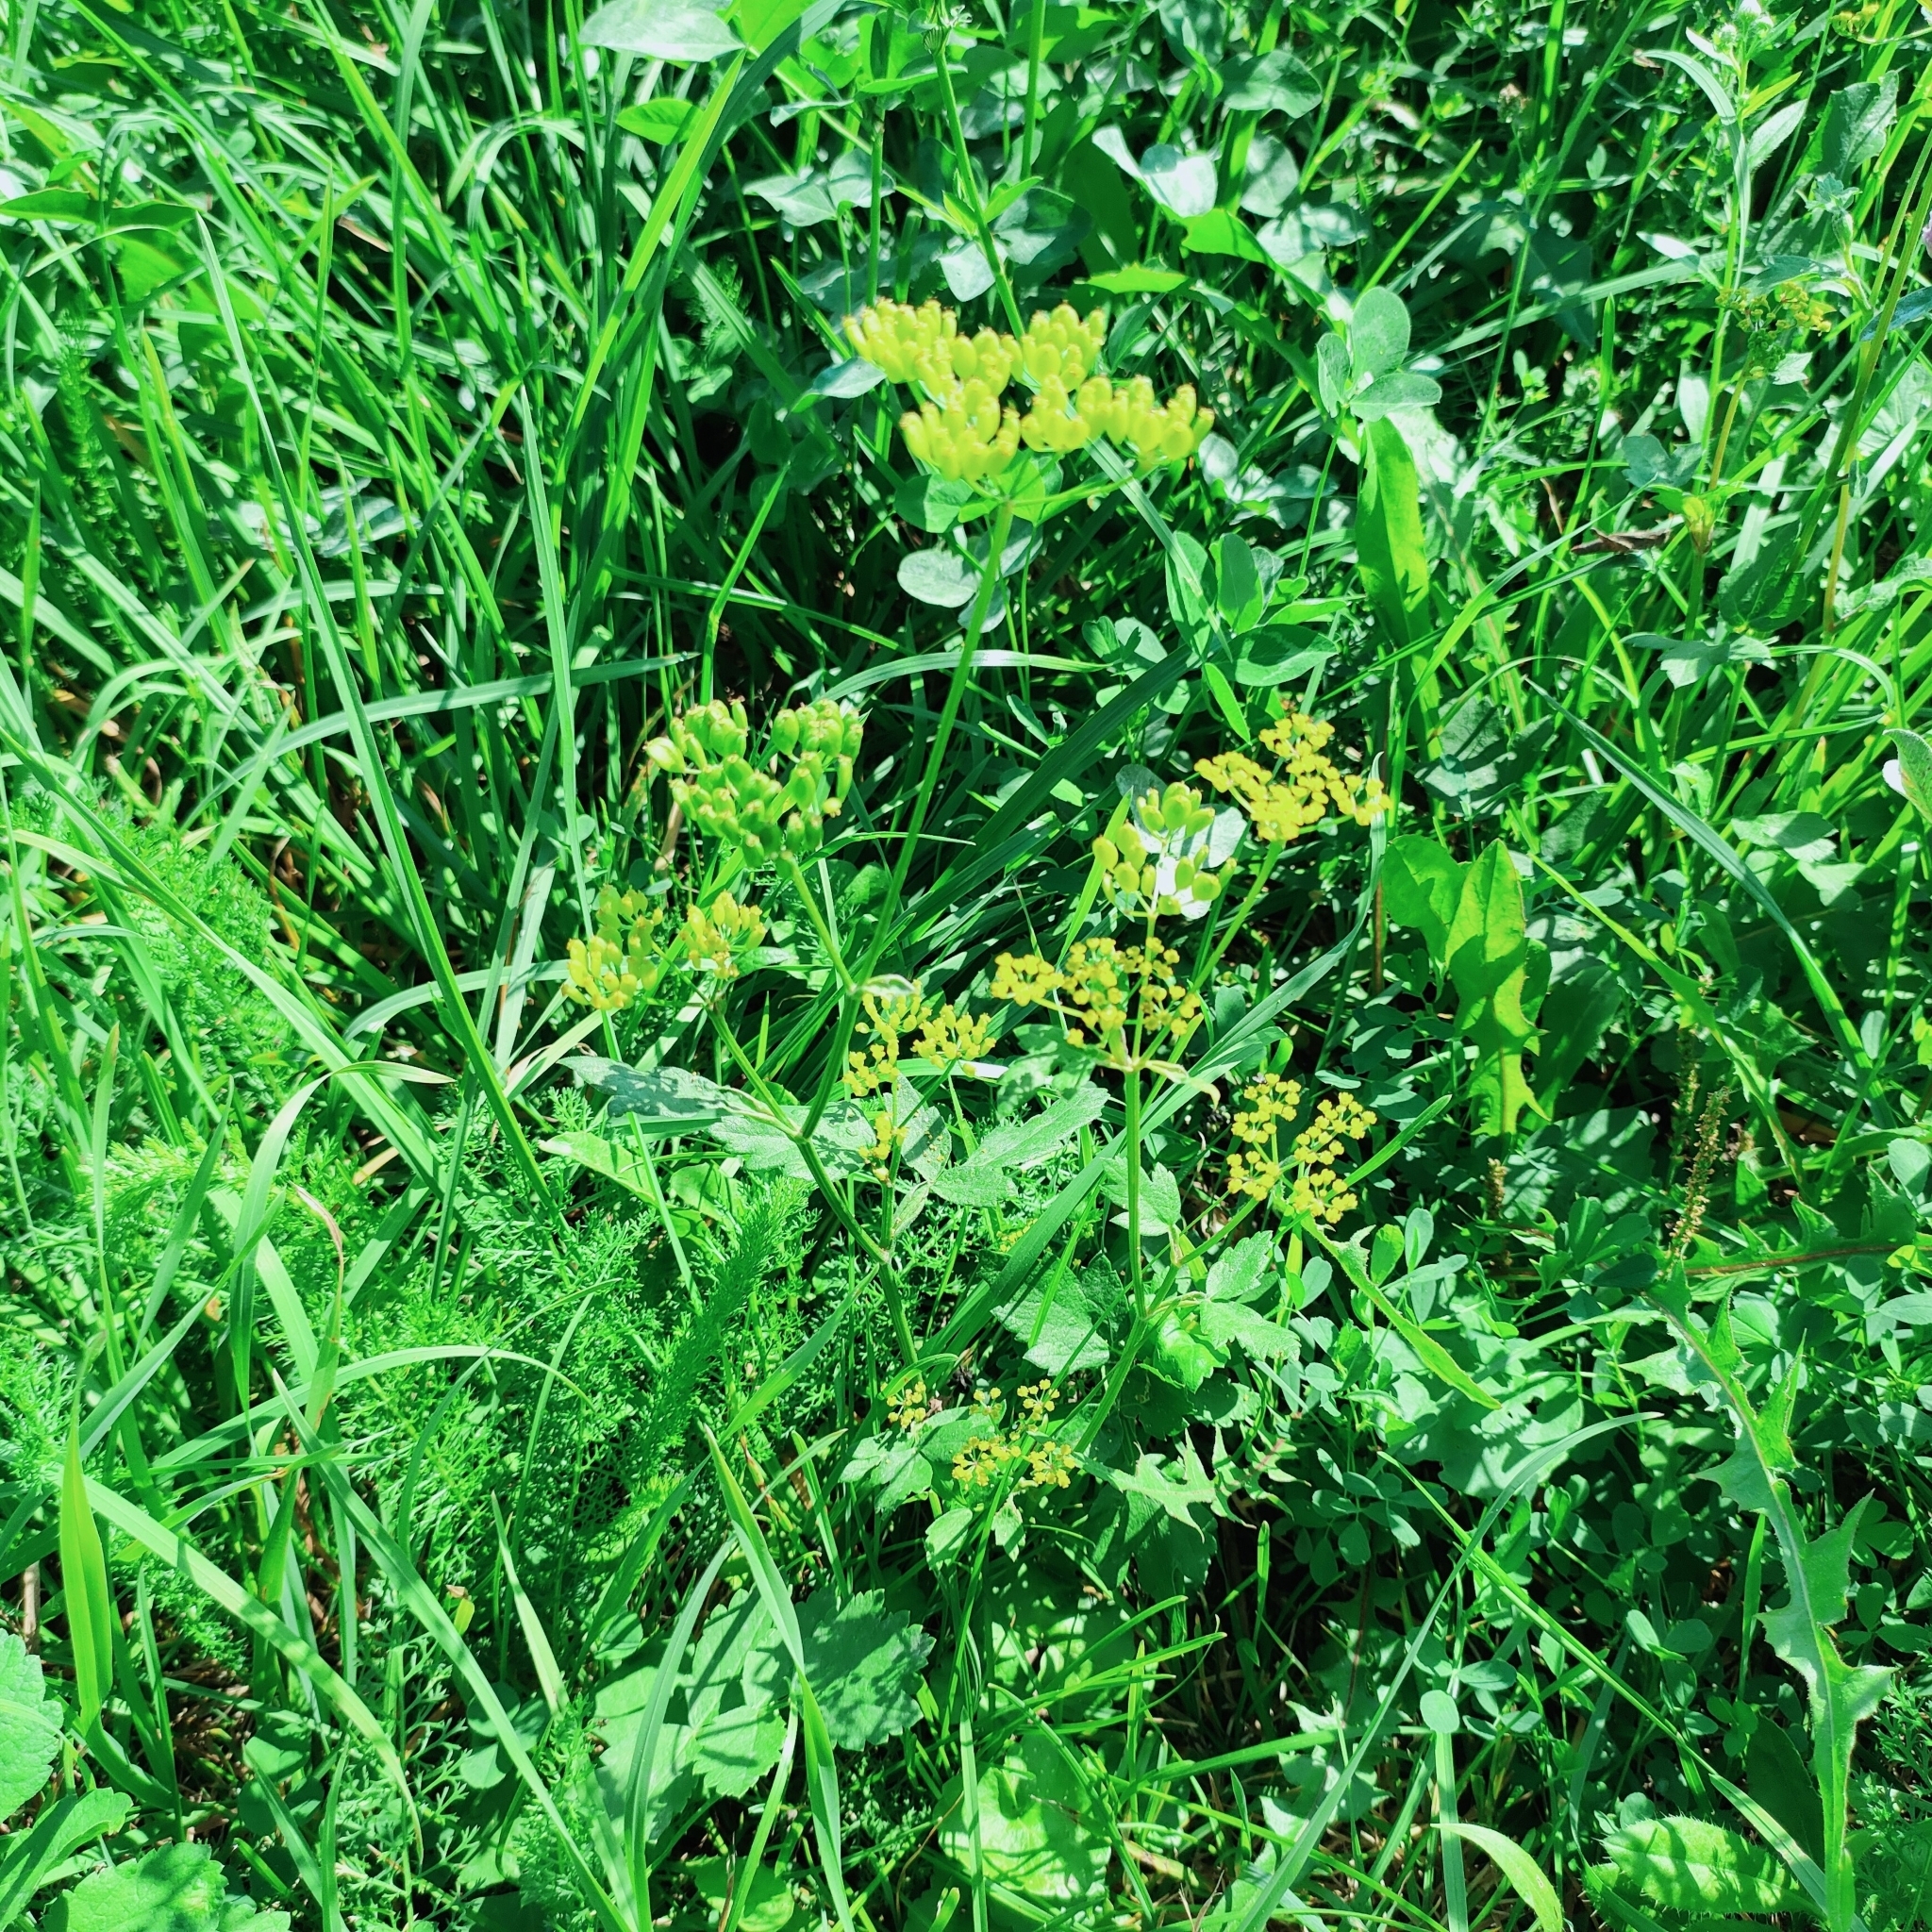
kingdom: Plantae
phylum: Tracheophyta
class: Magnoliopsida
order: Apiales
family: Apiaceae
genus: Pastinaca
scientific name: Pastinaca sativa
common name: Wild parsnip
